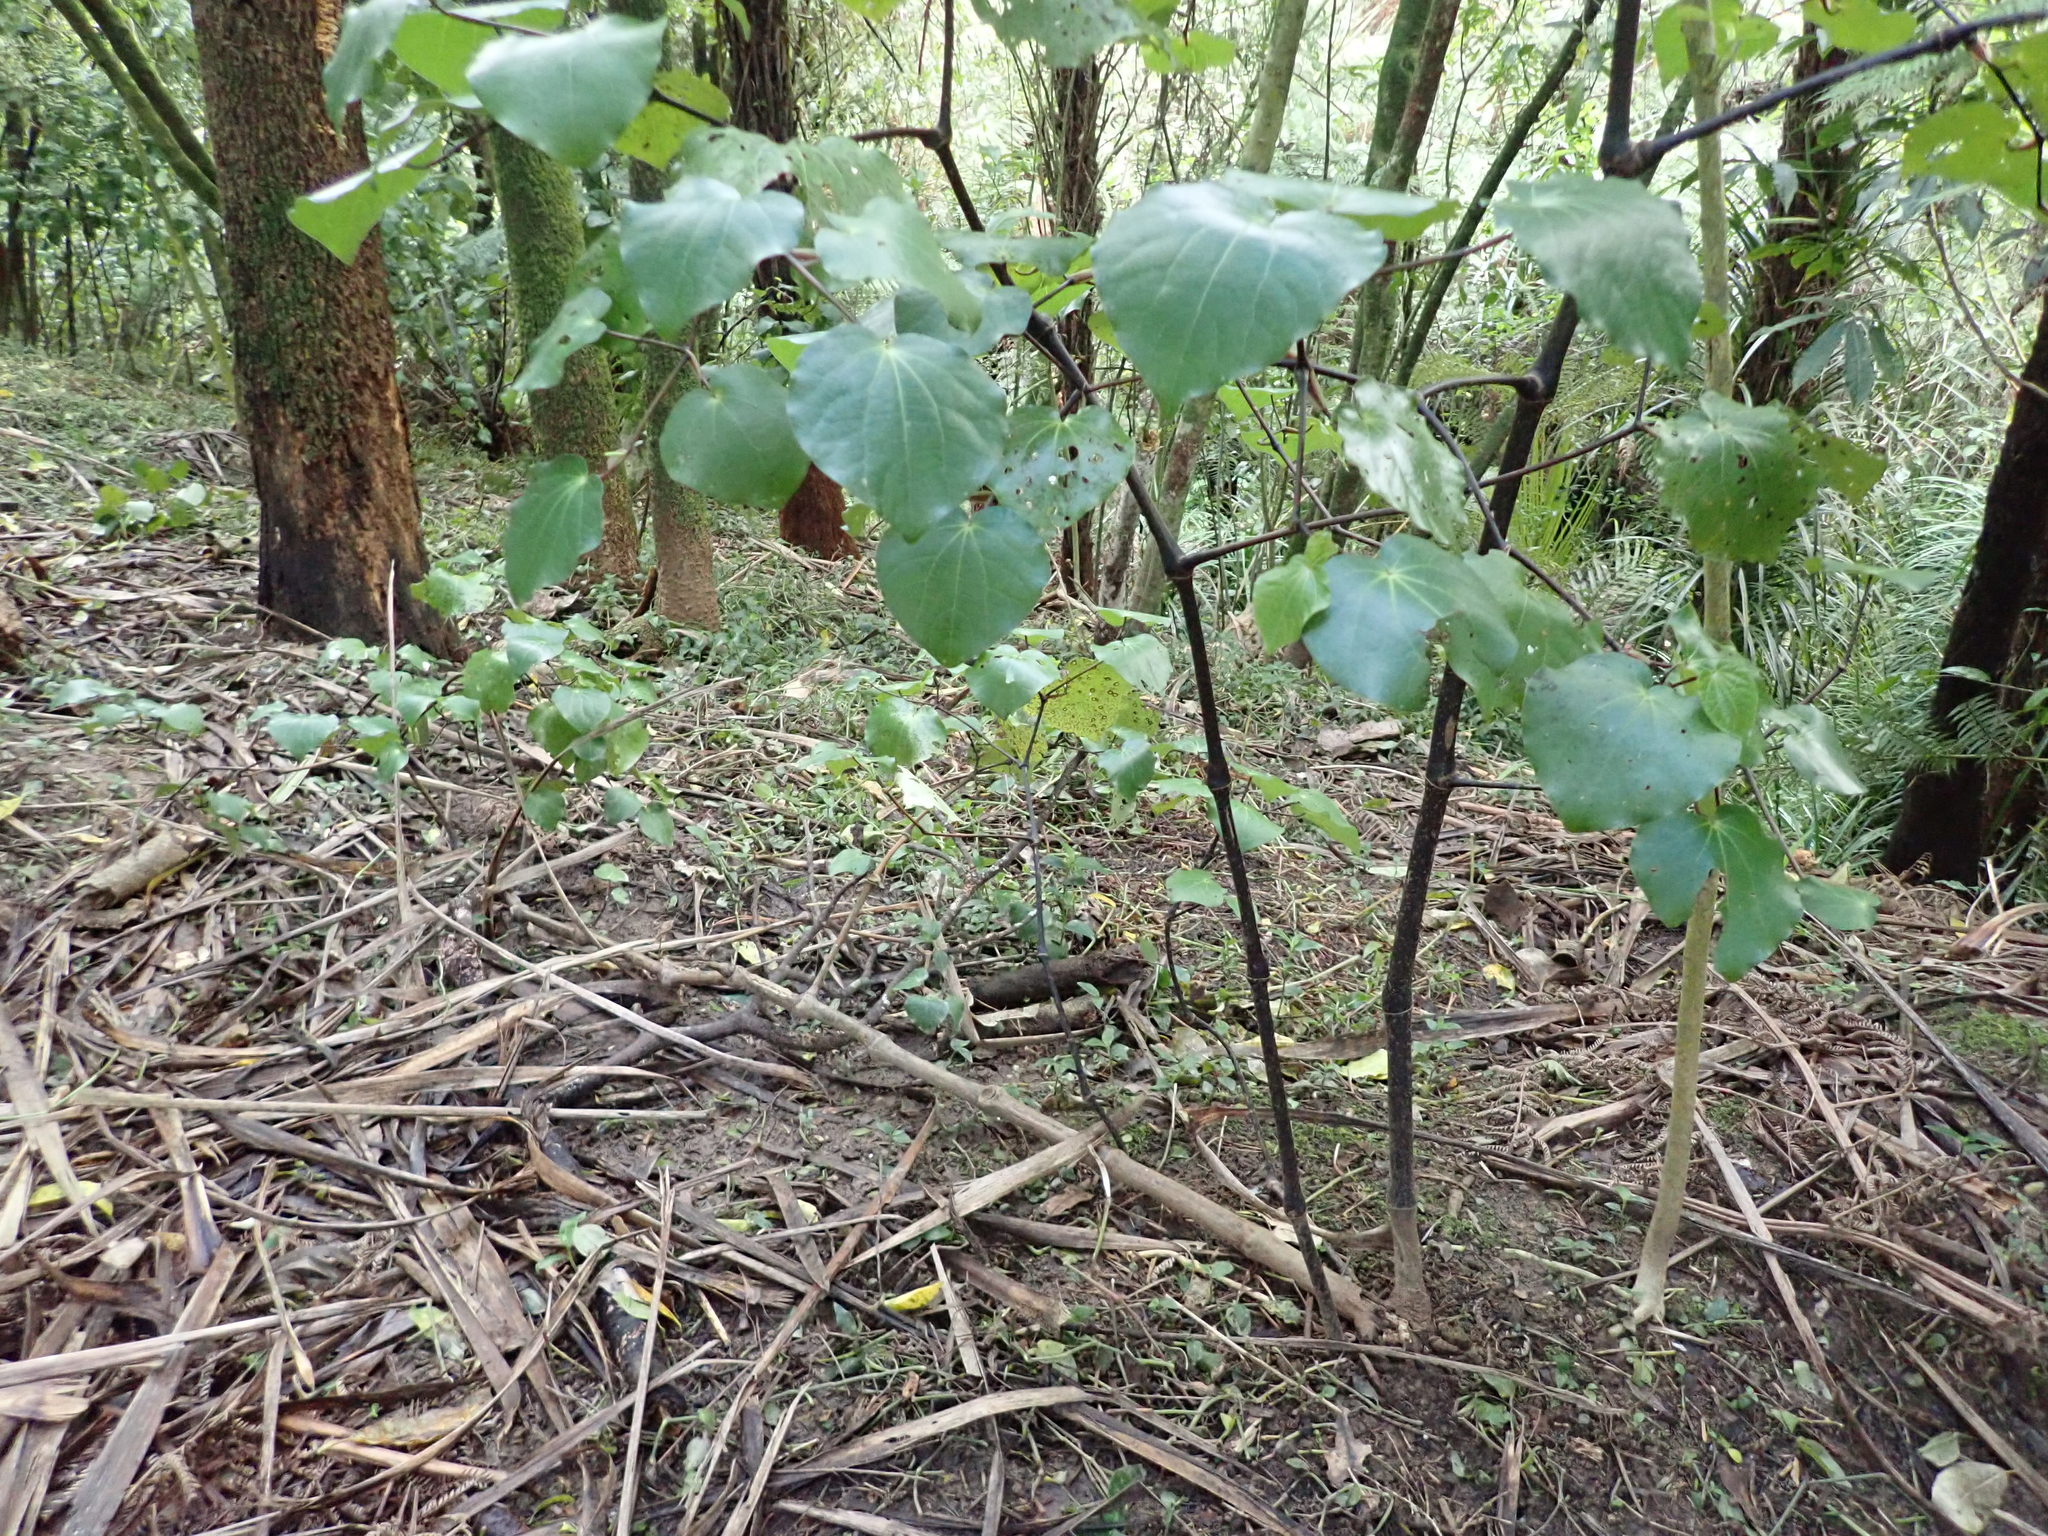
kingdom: Plantae
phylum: Tracheophyta
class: Magnoliopsida
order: Piperales
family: Piperaceae
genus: Macropiper
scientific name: Macropiper excelsum
